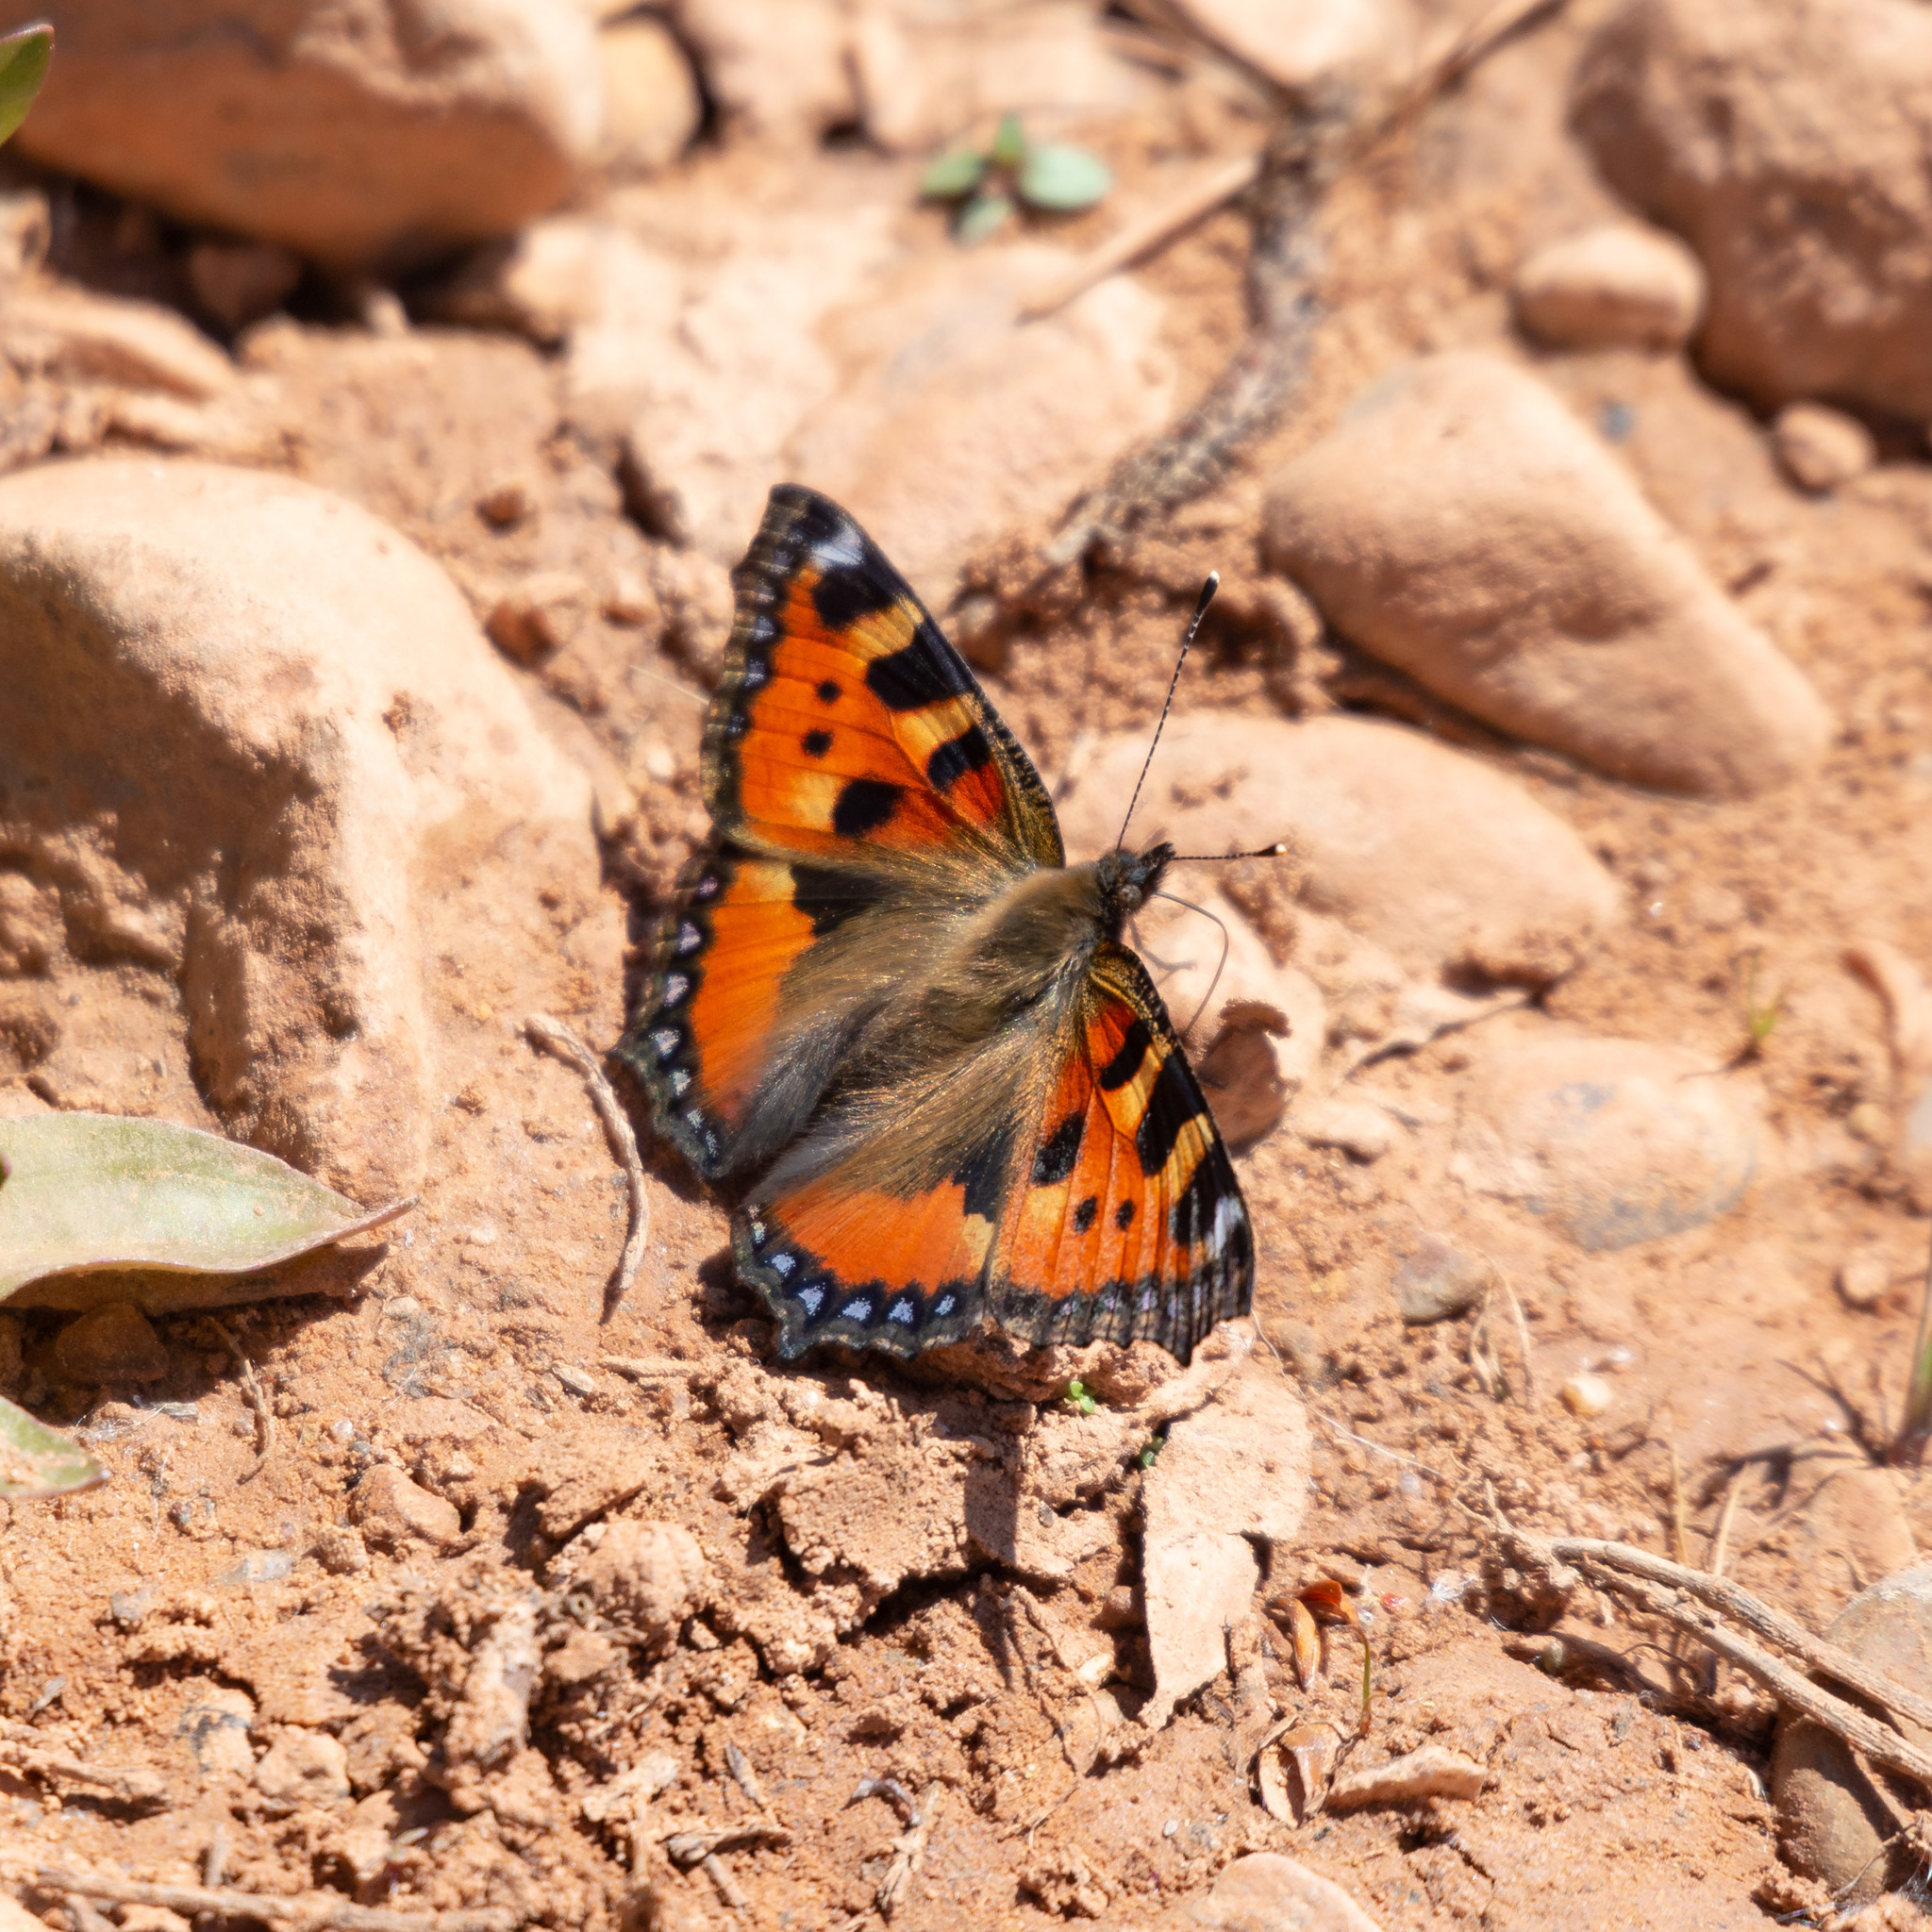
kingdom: Animalia
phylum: Arthropoda
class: Insecta
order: Lepidoptera
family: Nymphalidae
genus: Aglais
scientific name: Aglais urticae
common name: Small tortoiseshell
